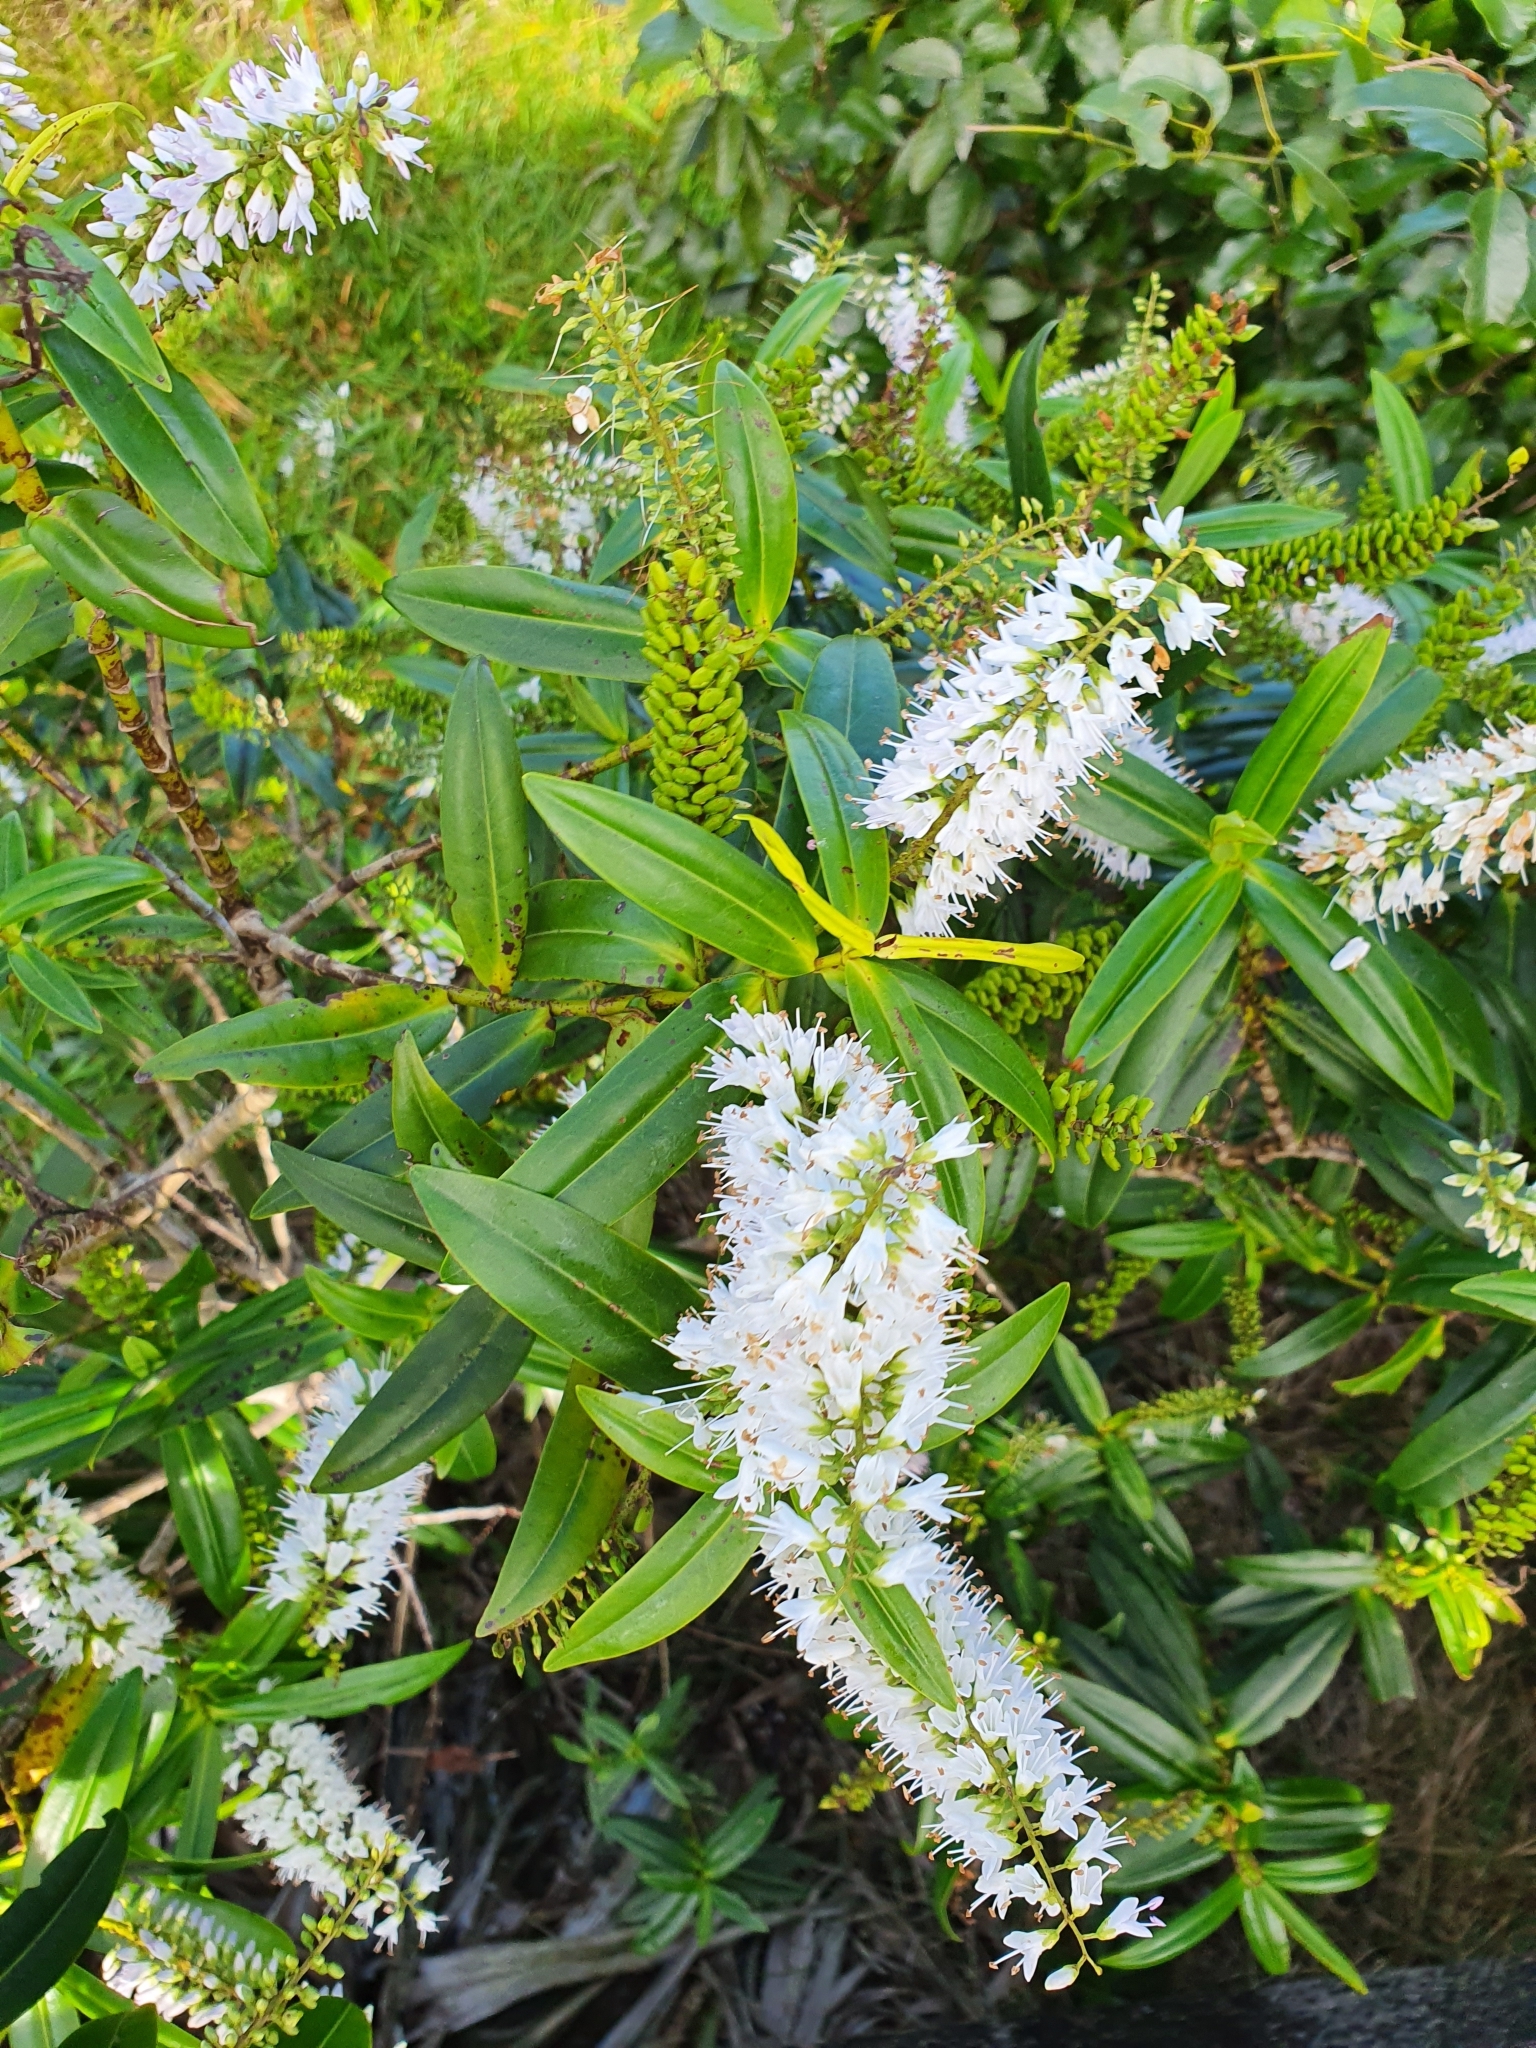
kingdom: Plantae
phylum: Tracheophyta
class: Magnoliopsida
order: Lamiales
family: Plantaginaceae
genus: Veronica
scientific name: Veronica stricta
